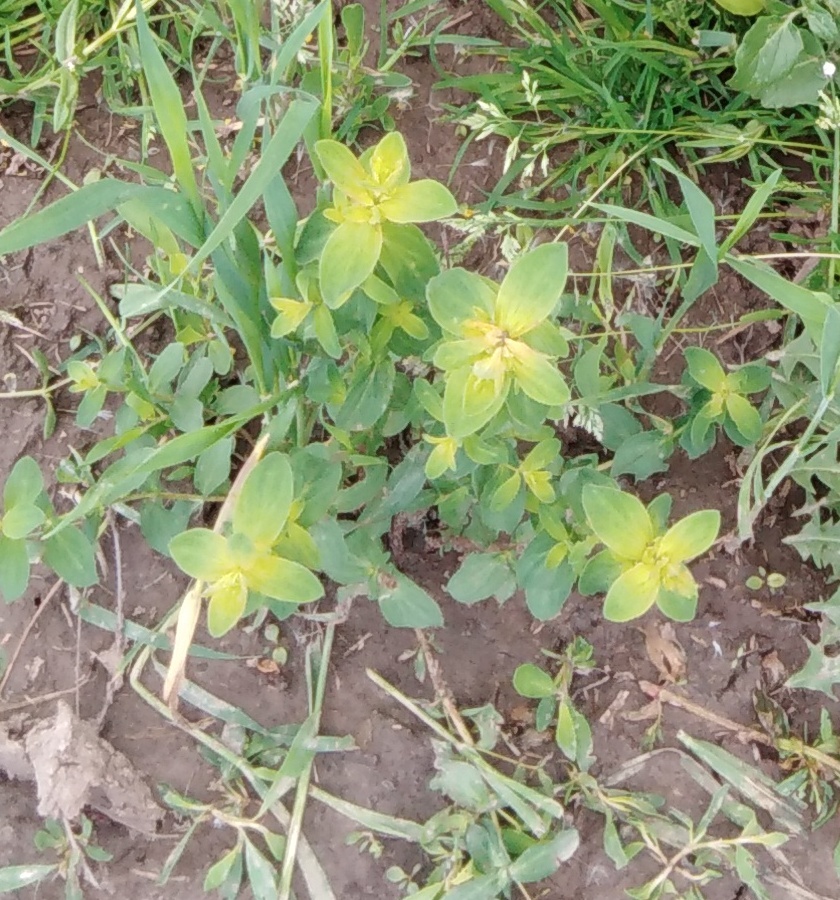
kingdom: Plantae
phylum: Tracheophyta
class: Magnoliopsida
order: Malpighiales
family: Hypericaceae
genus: Hypericum
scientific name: Hypericum perforatum
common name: Common st. johnswort
